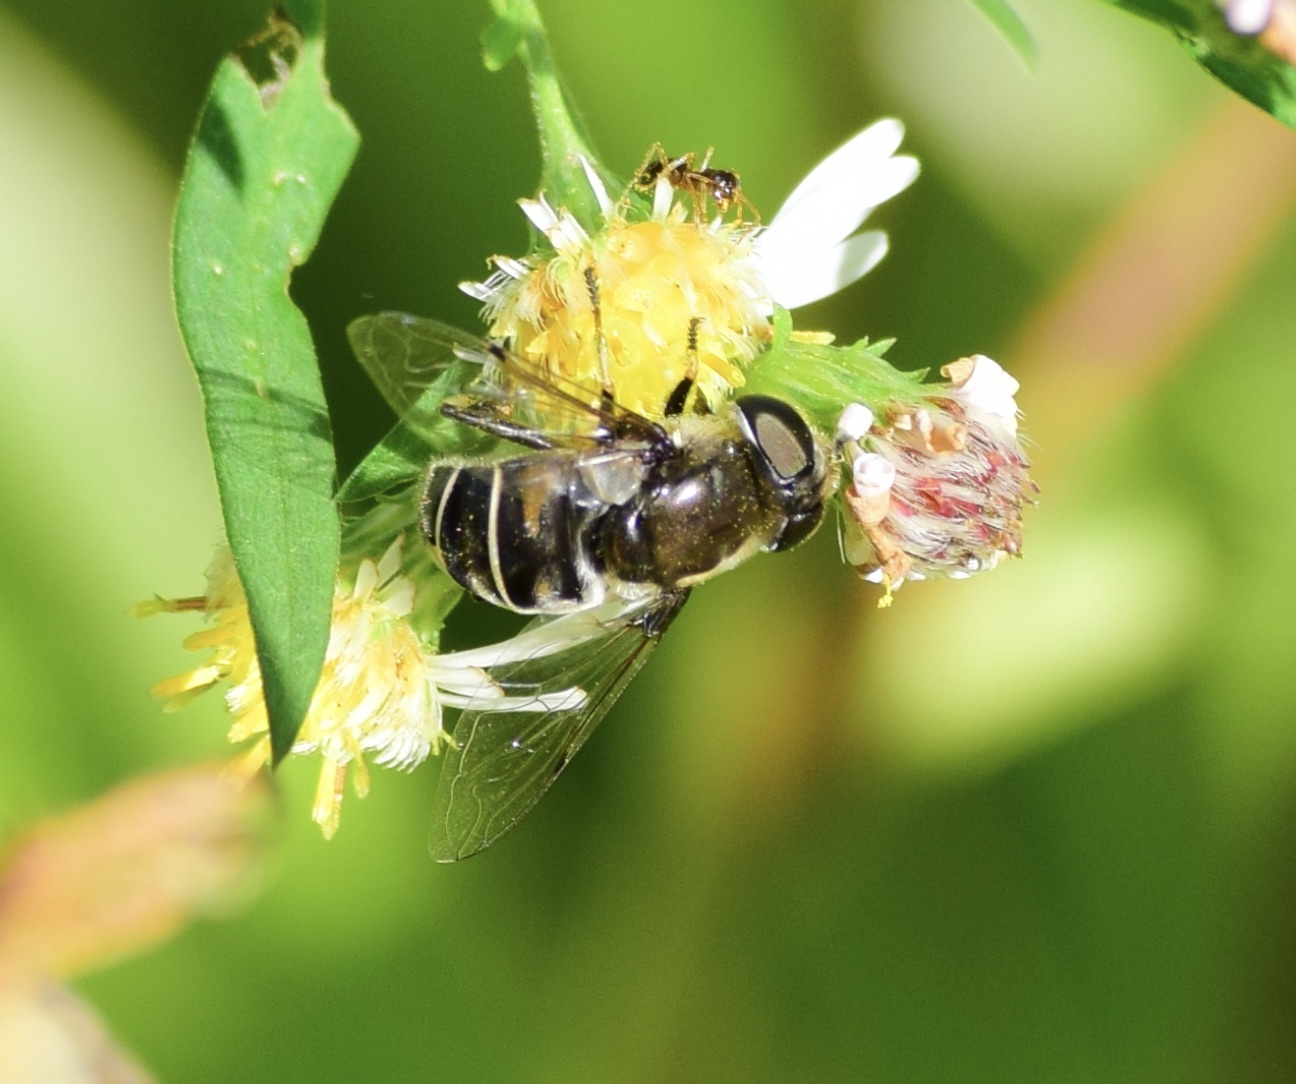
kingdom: Animalia
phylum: Arthropoda
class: Insecta
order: Diptera
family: Syrphidae
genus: Eristalis
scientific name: Eristalis dimidiata
